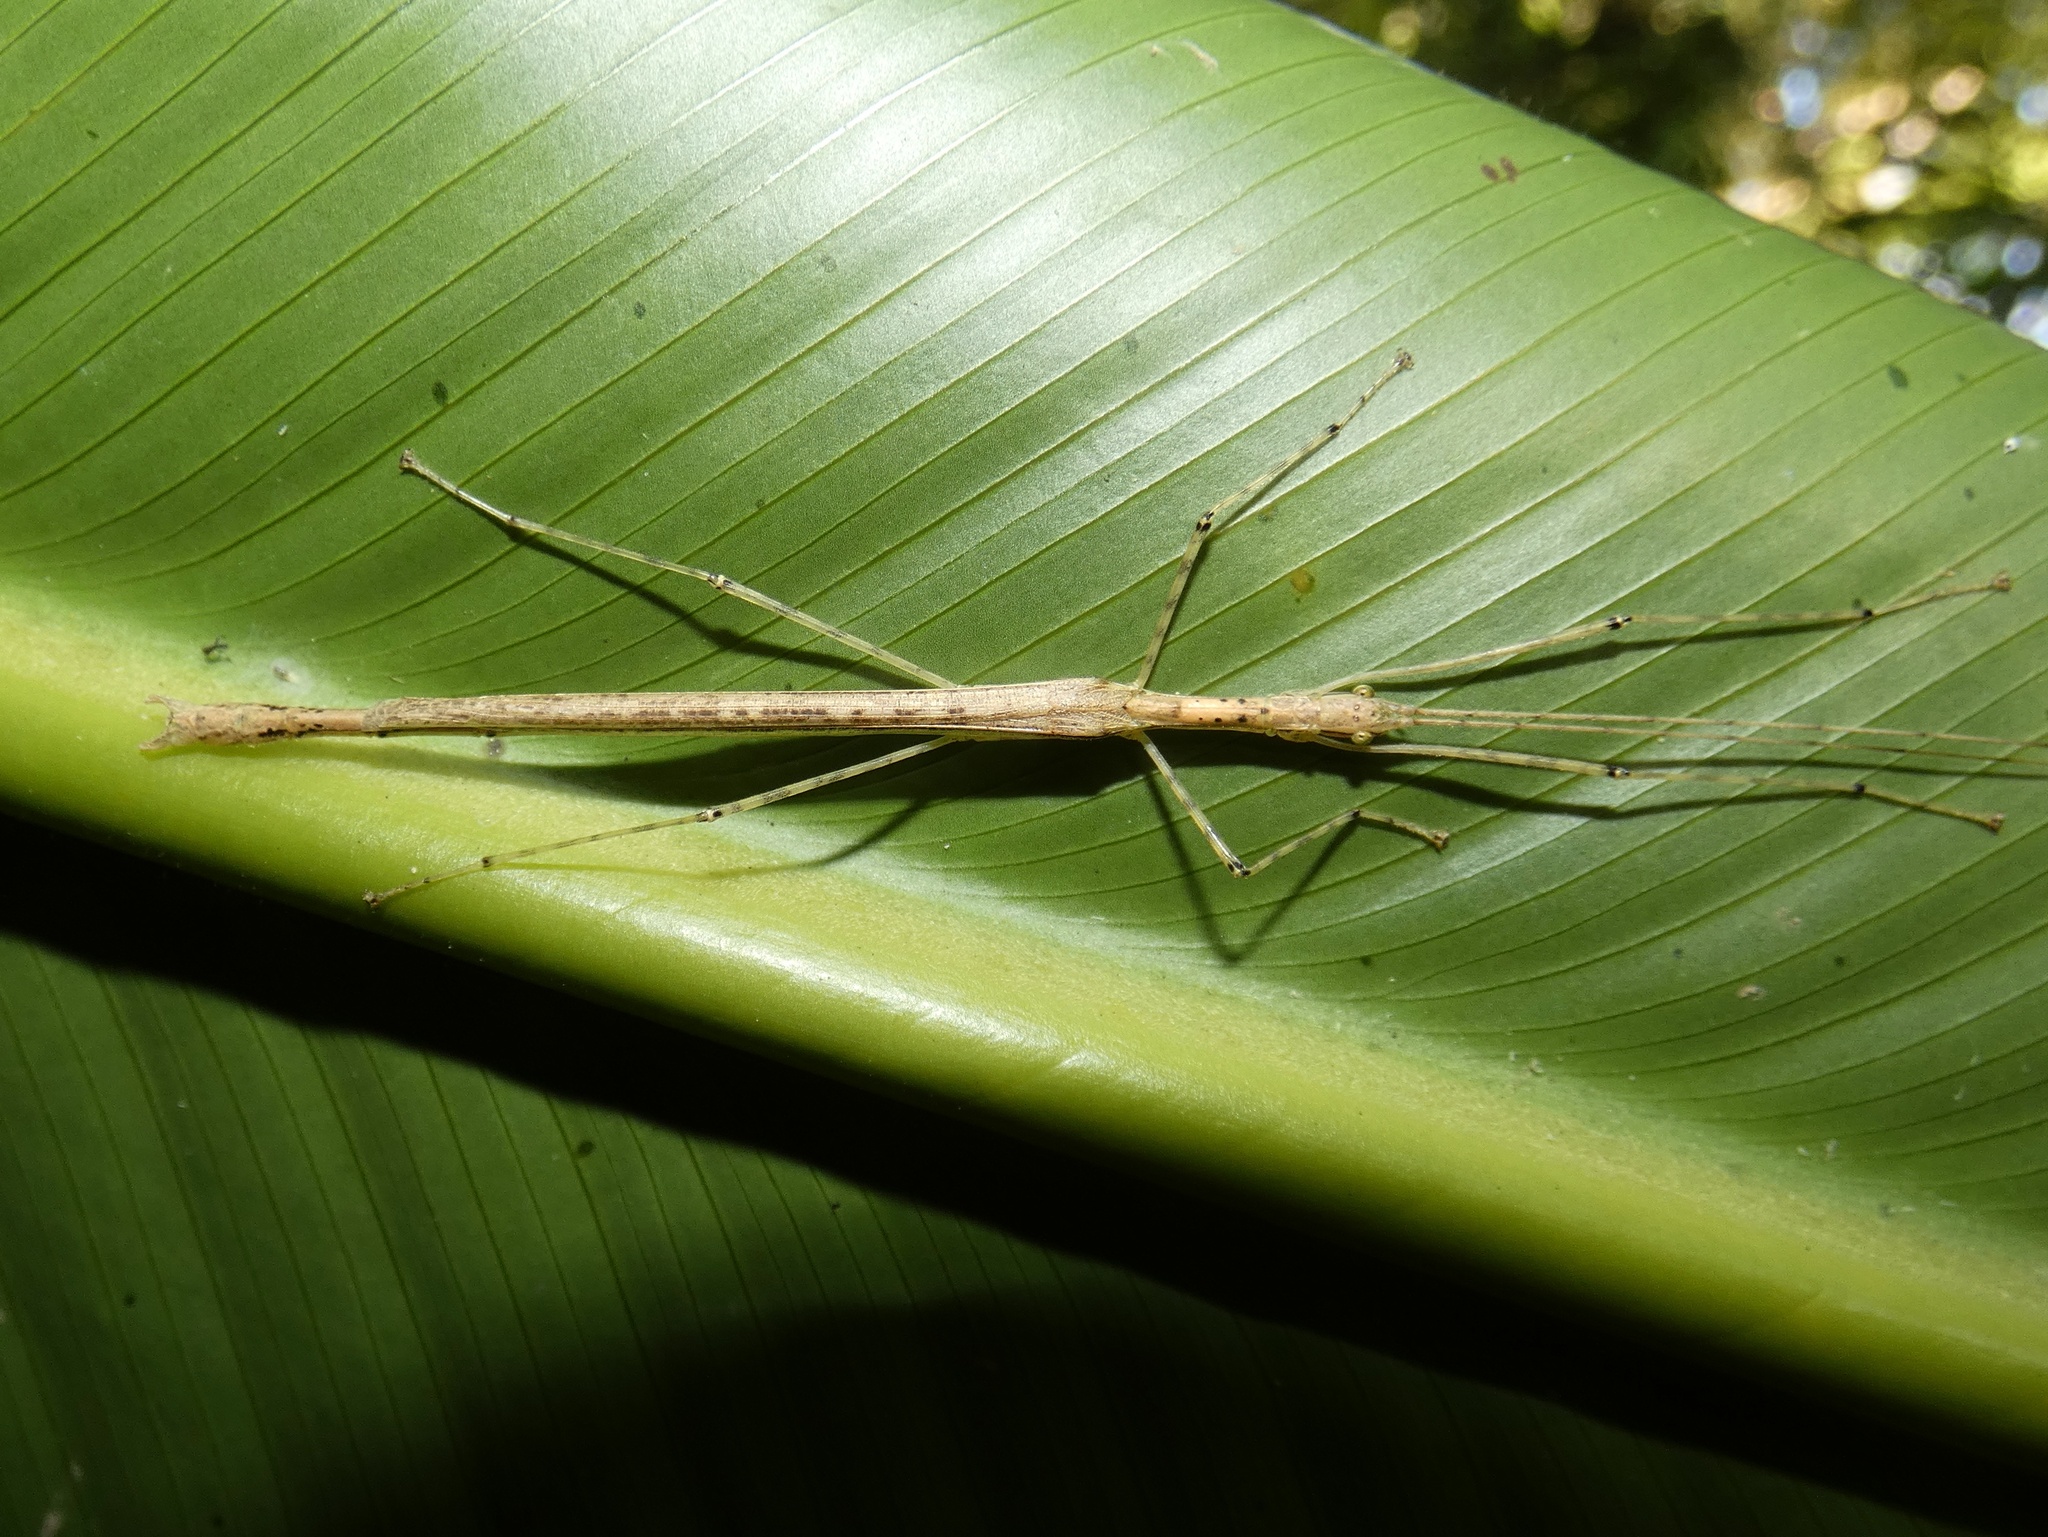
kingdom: Animalia
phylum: Arthropoda
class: Insecta
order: Phasmida
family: Pseudophasmatidae
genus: Pseudophasma
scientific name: Pseudophasma phaeton
